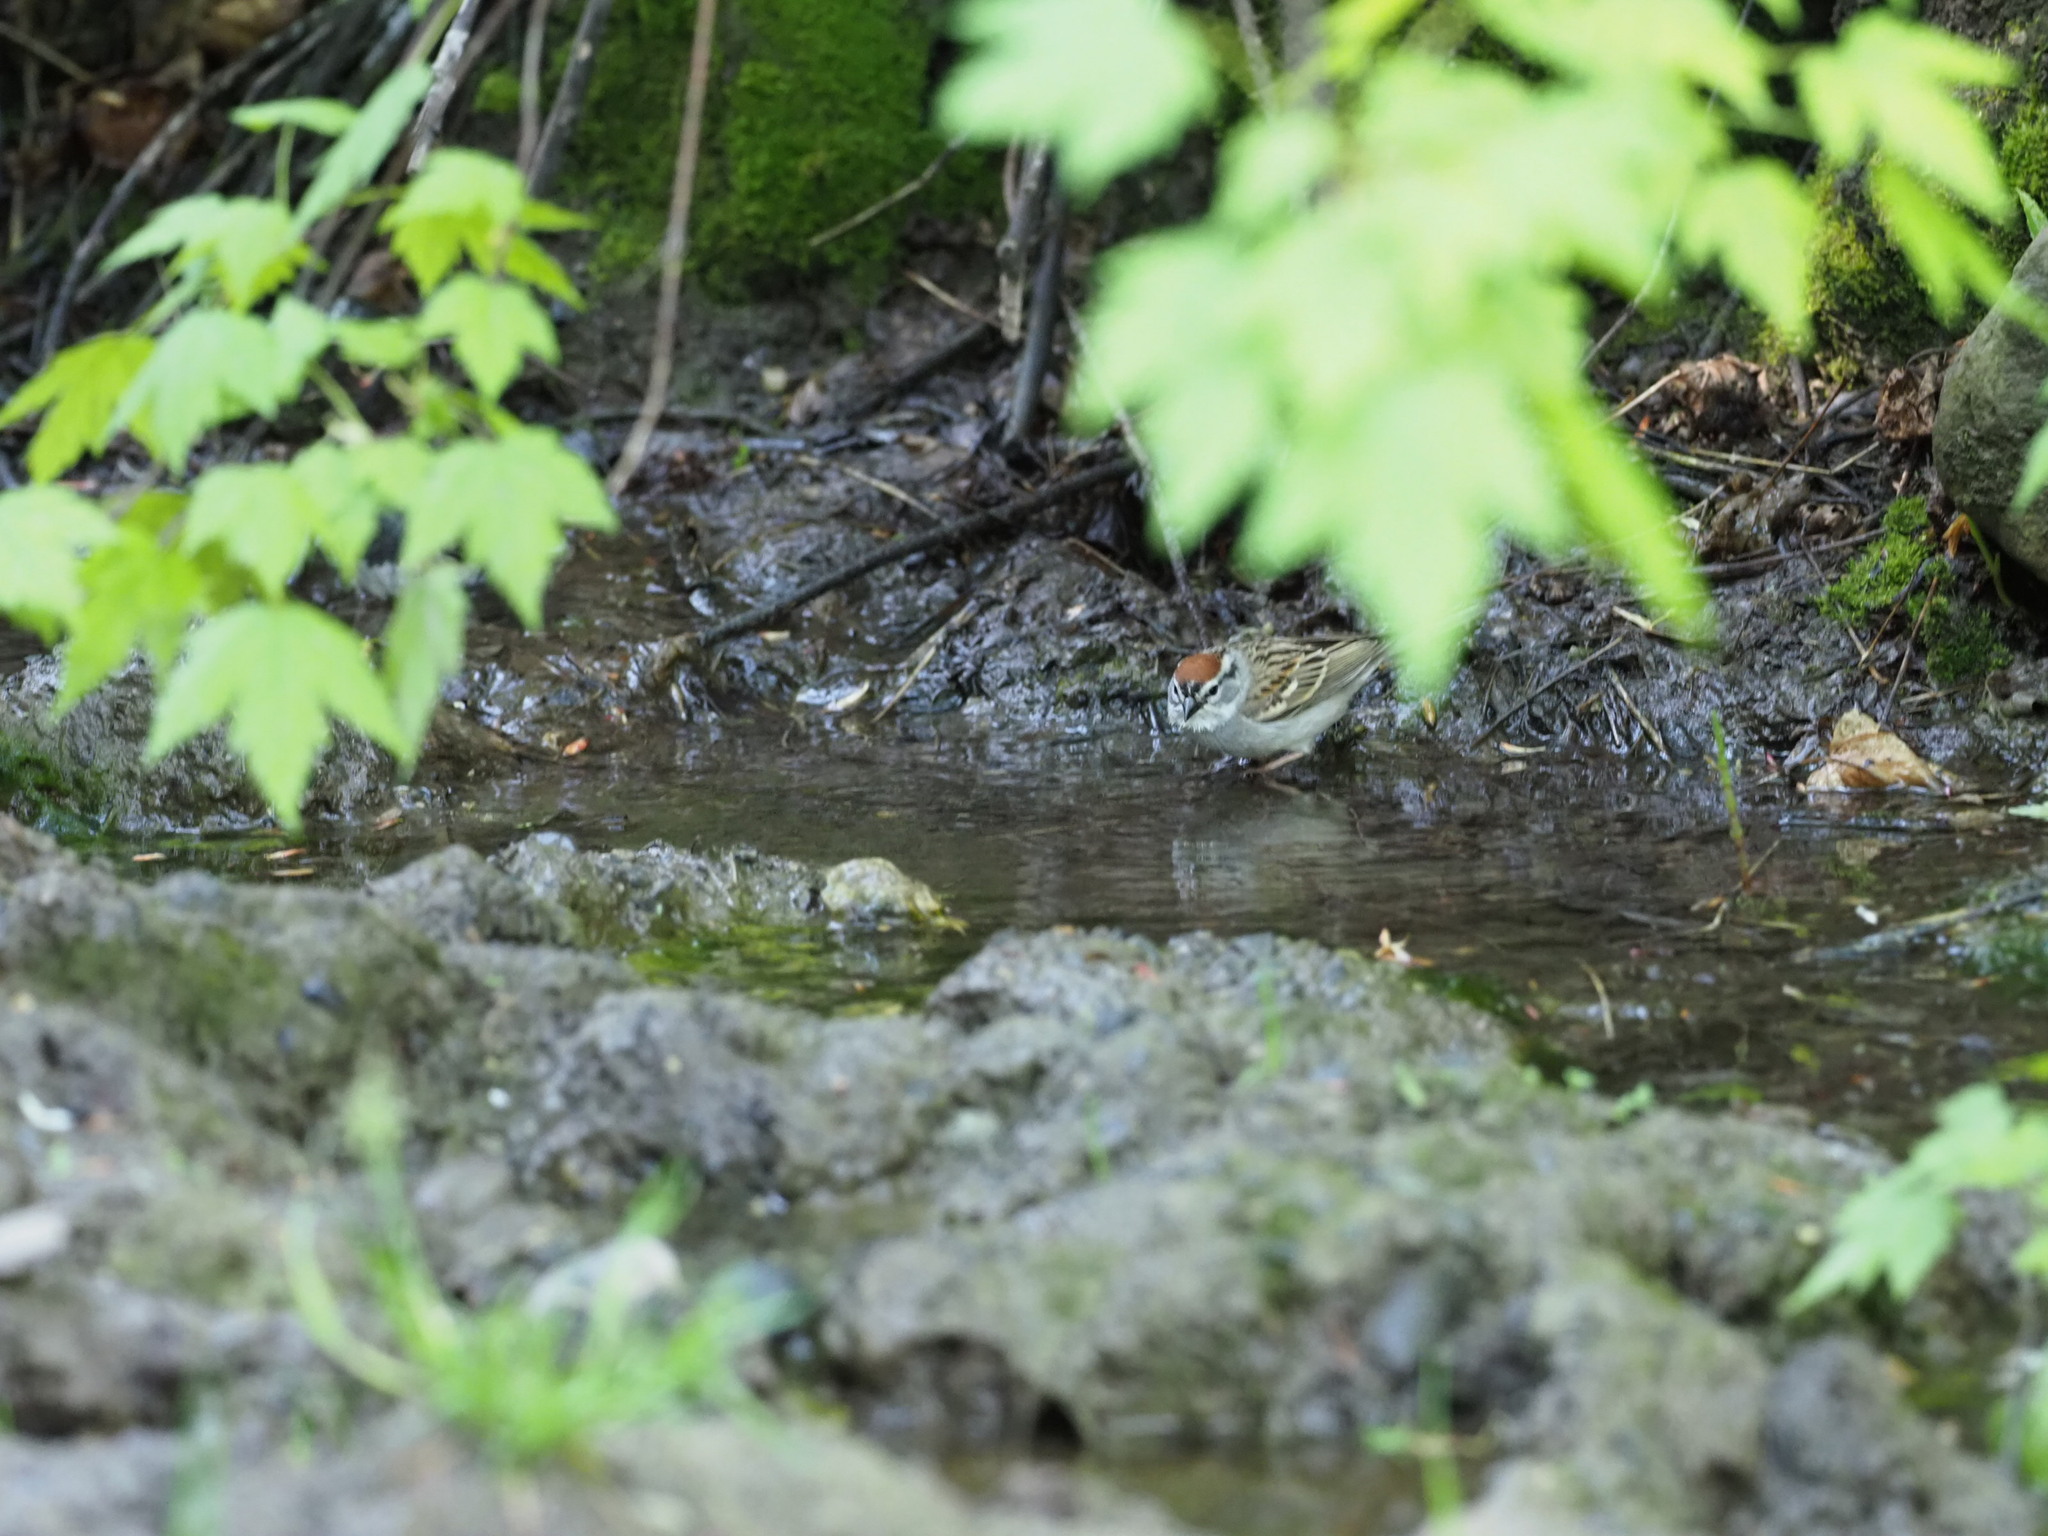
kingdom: Animalia
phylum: Chordata
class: Aves
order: Passeriformes
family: Passerellidae
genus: Spizella
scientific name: Spizella passerina
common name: Chipping sparrow
